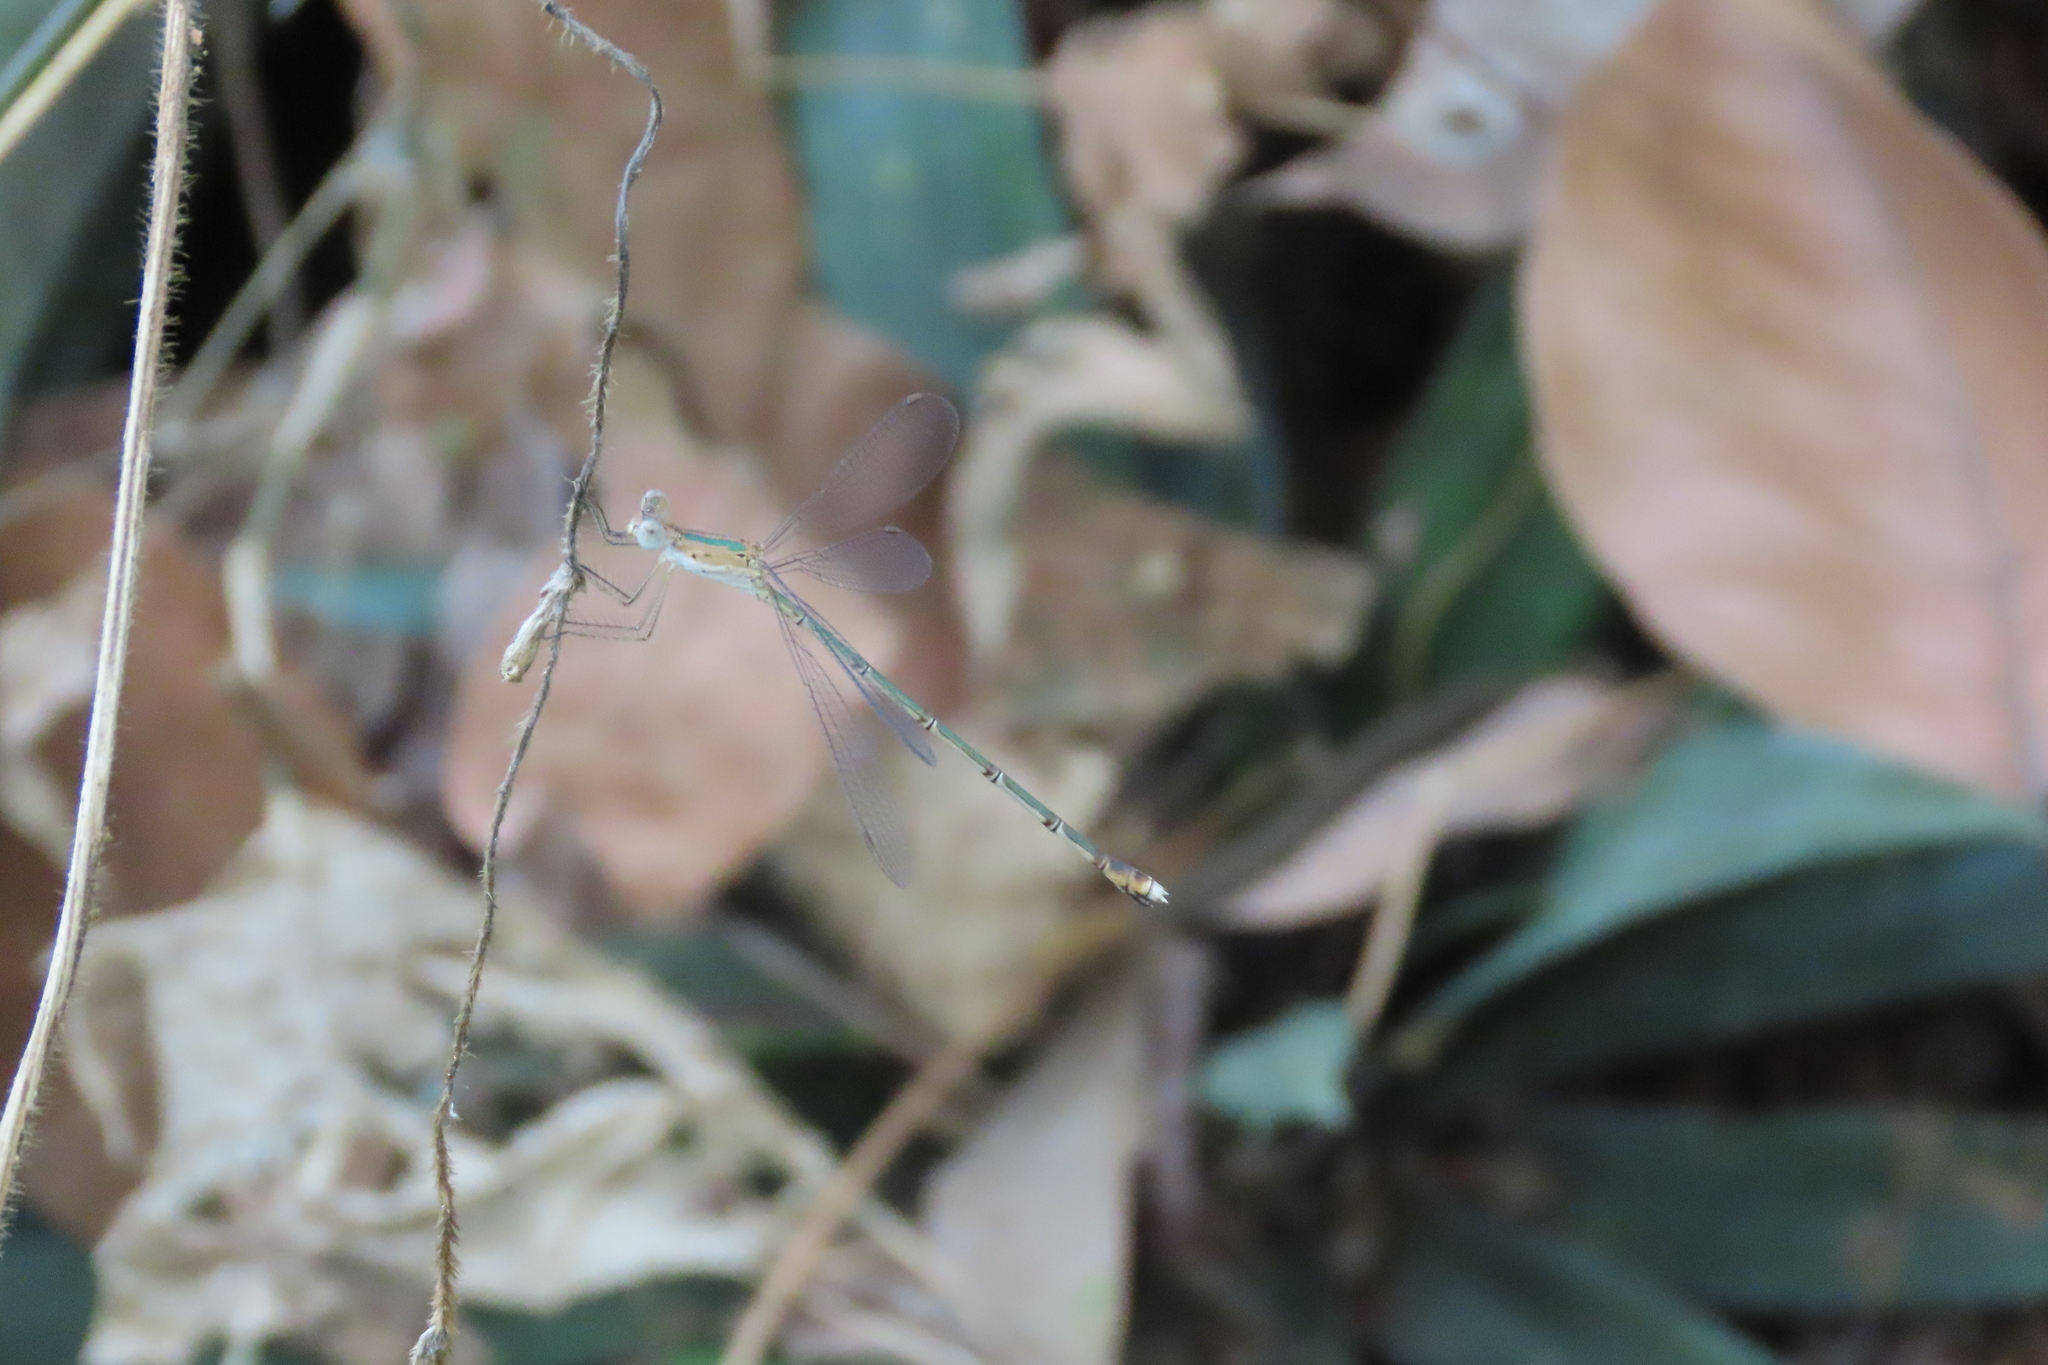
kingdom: Animalia
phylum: Arthropoda
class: Insecta
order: Odonata
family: Lestidae
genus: Lestes
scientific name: Lestes elatus
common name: Emerald spreadwing
